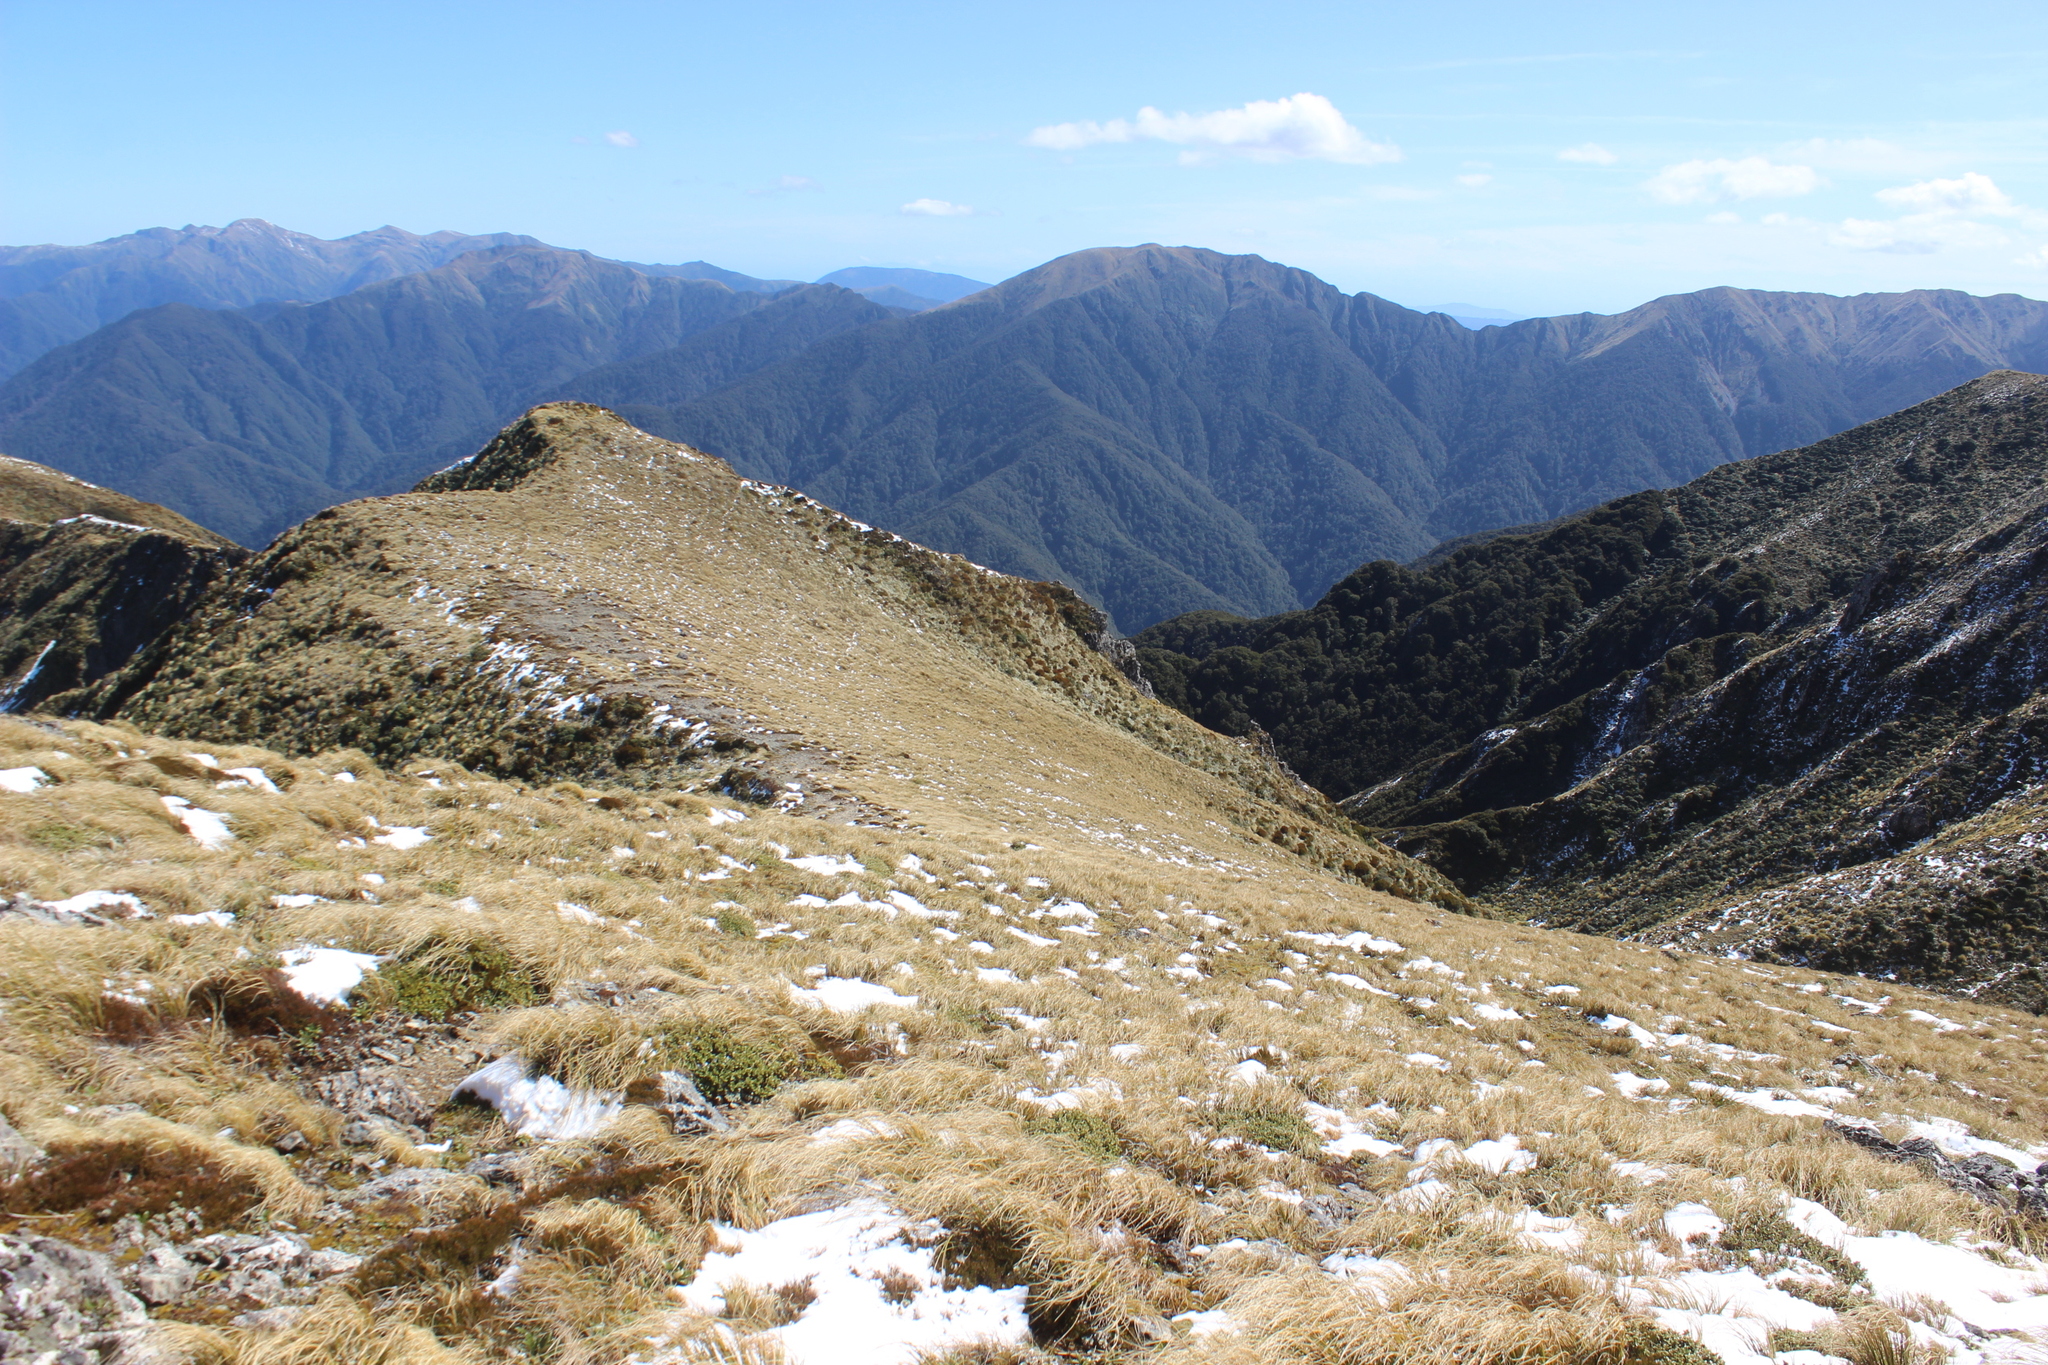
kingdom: Plantae
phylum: Tracheophyta
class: Liliopsida
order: Poales
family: Poaceae
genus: Chionochloa
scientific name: Chionochloa flavescens
